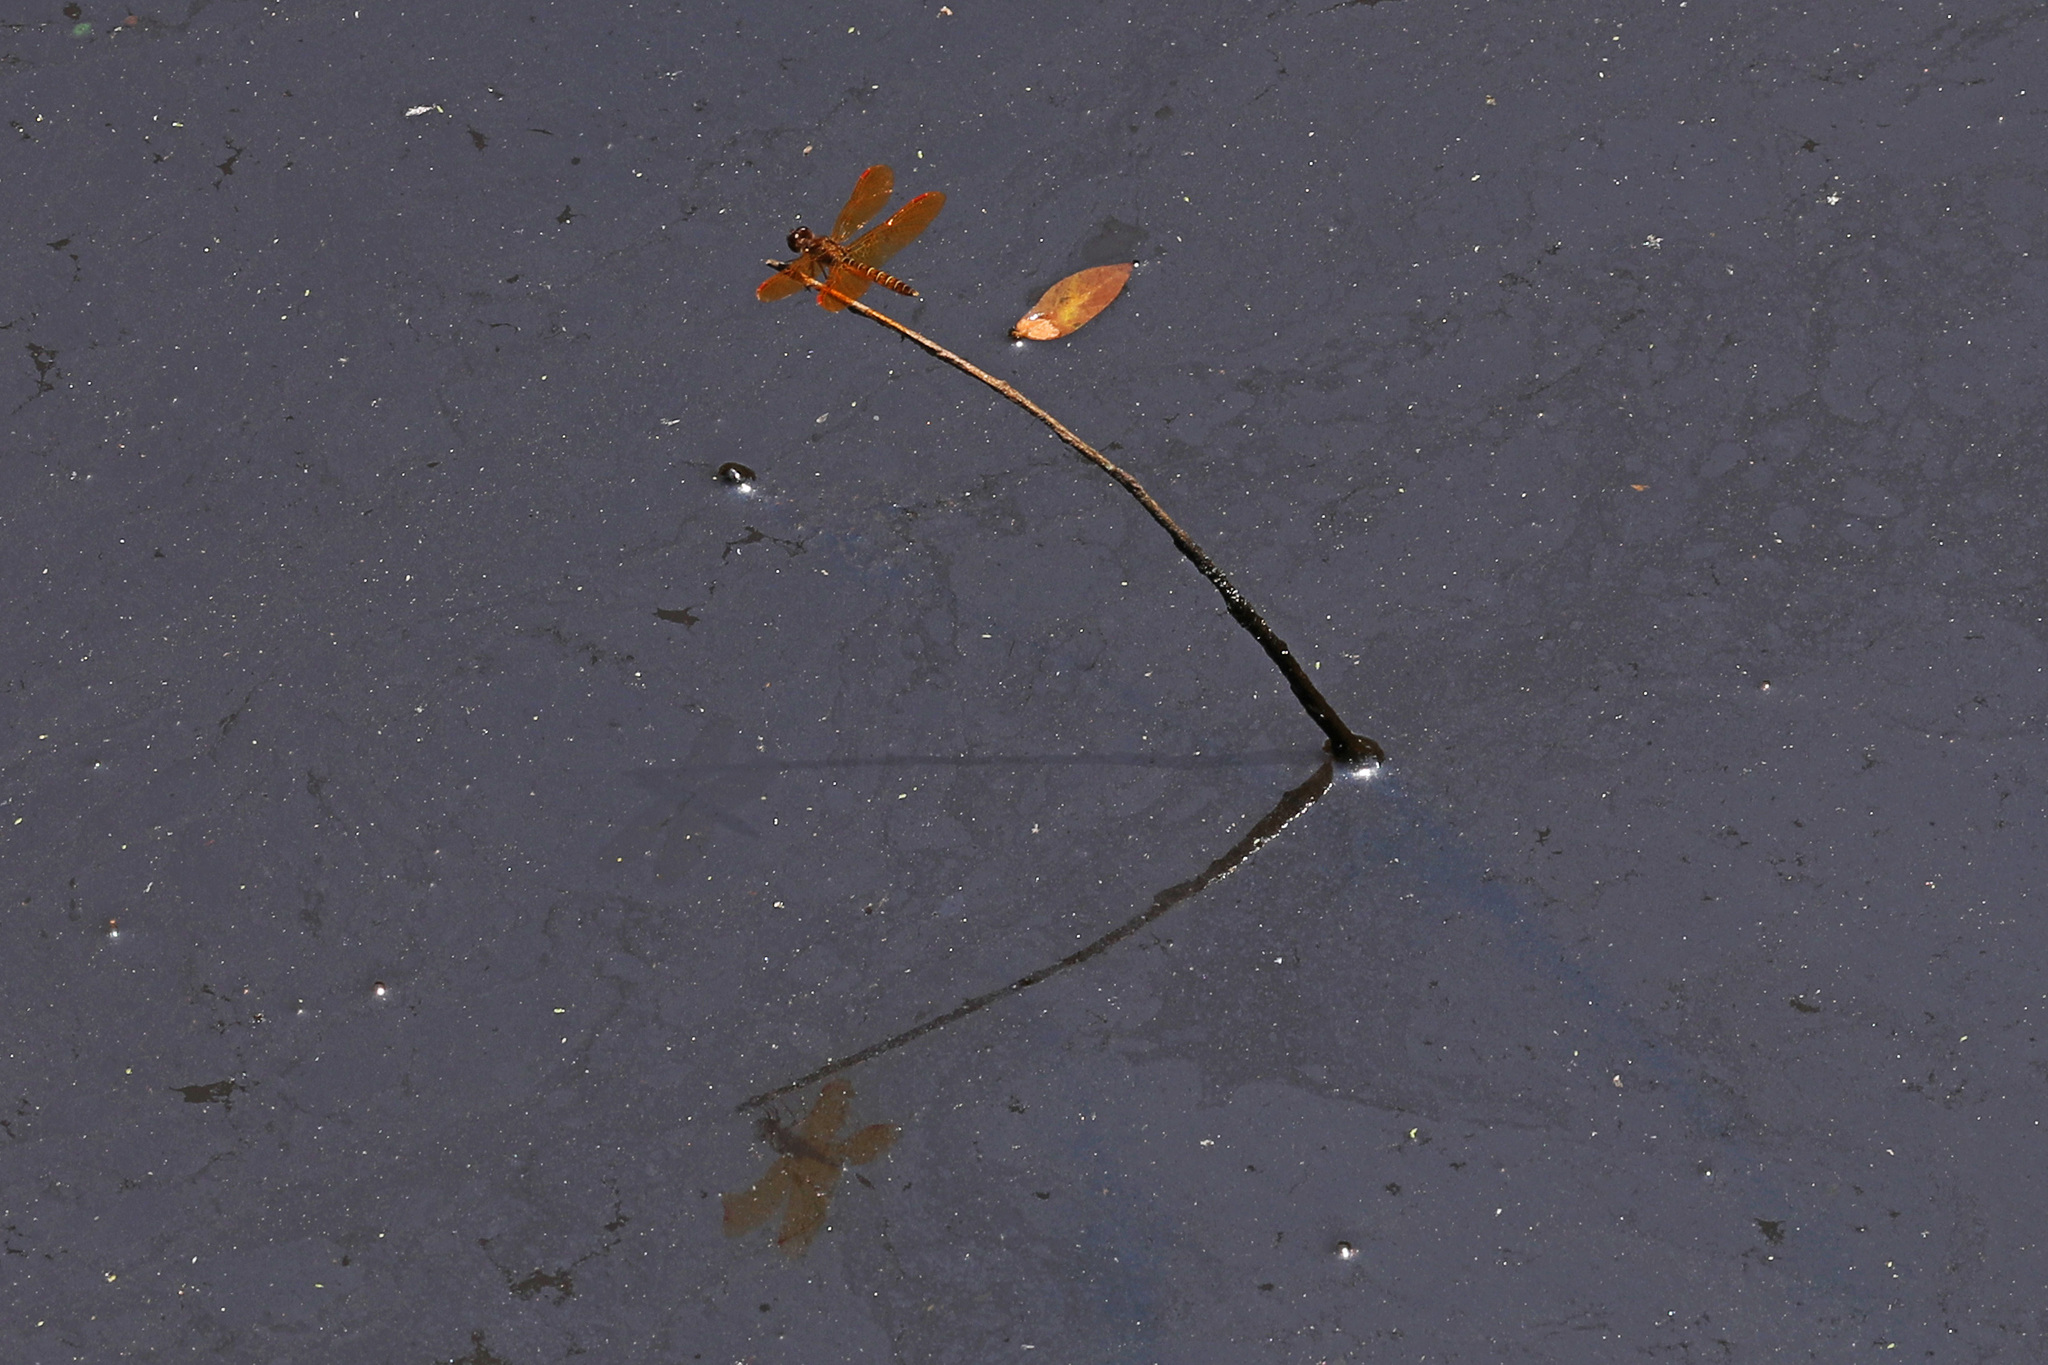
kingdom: Animalia
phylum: Arthropoda
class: Insecta
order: Odonata
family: Libellulidae
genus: Perithemis
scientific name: Perithemis tenera
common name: Eastern amberwing
